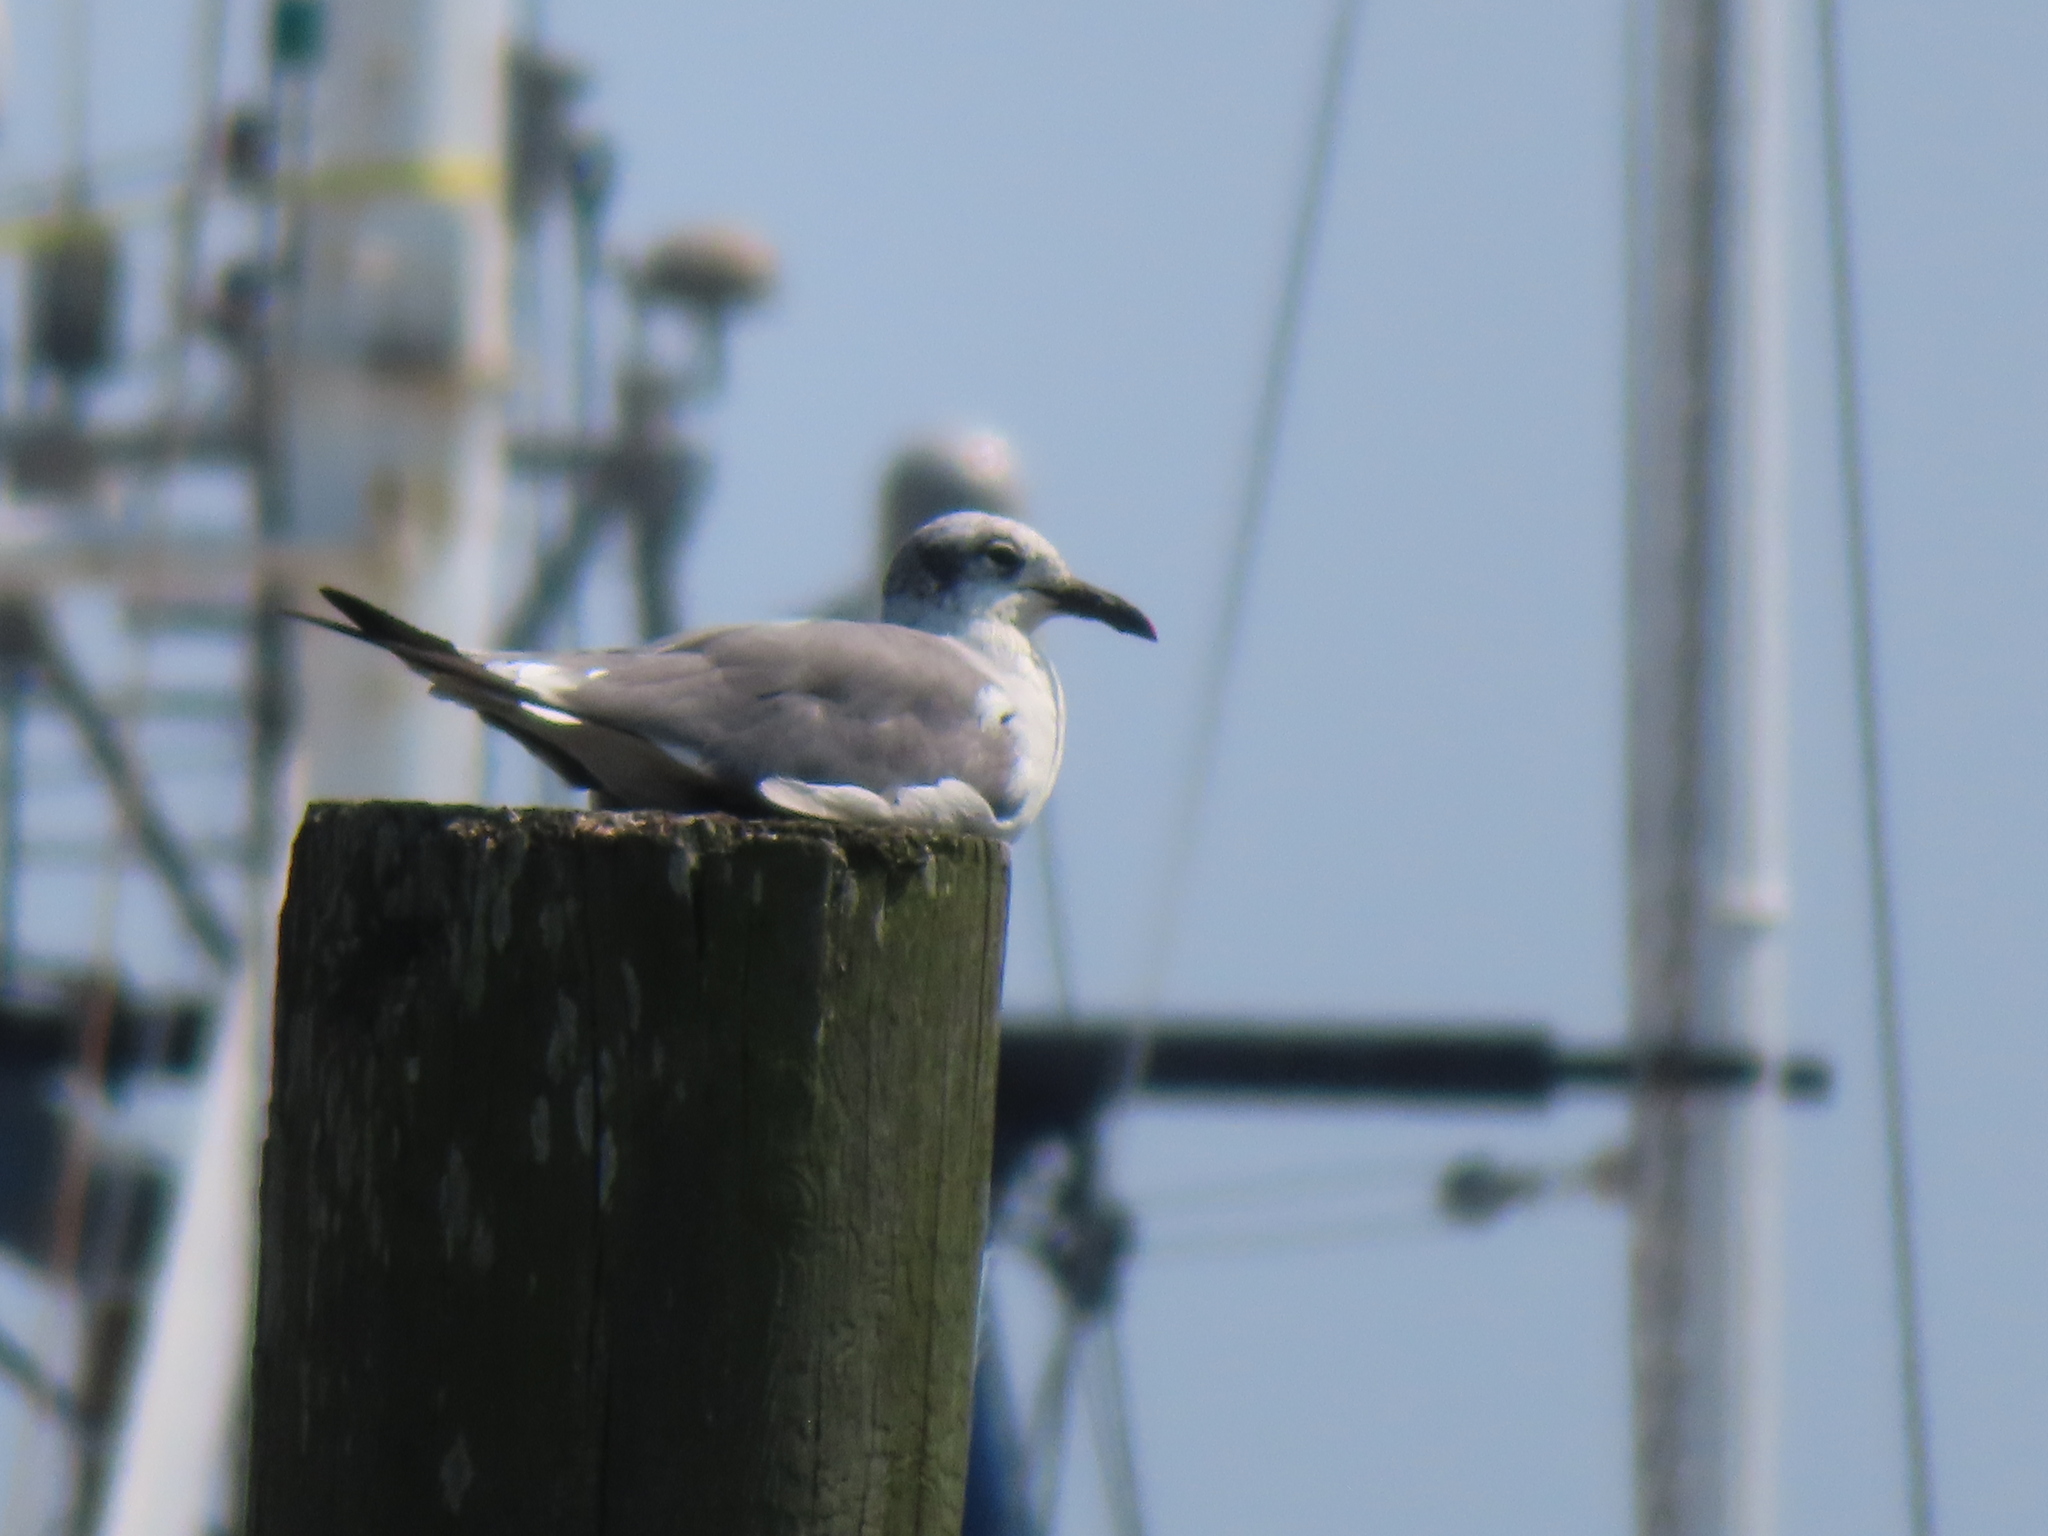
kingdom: Animalia
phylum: Chordata
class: Aves
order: Charadriiformes
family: Laridae
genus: Leucophaeus
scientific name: Leucophaeus atricilla
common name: Laughing gull
